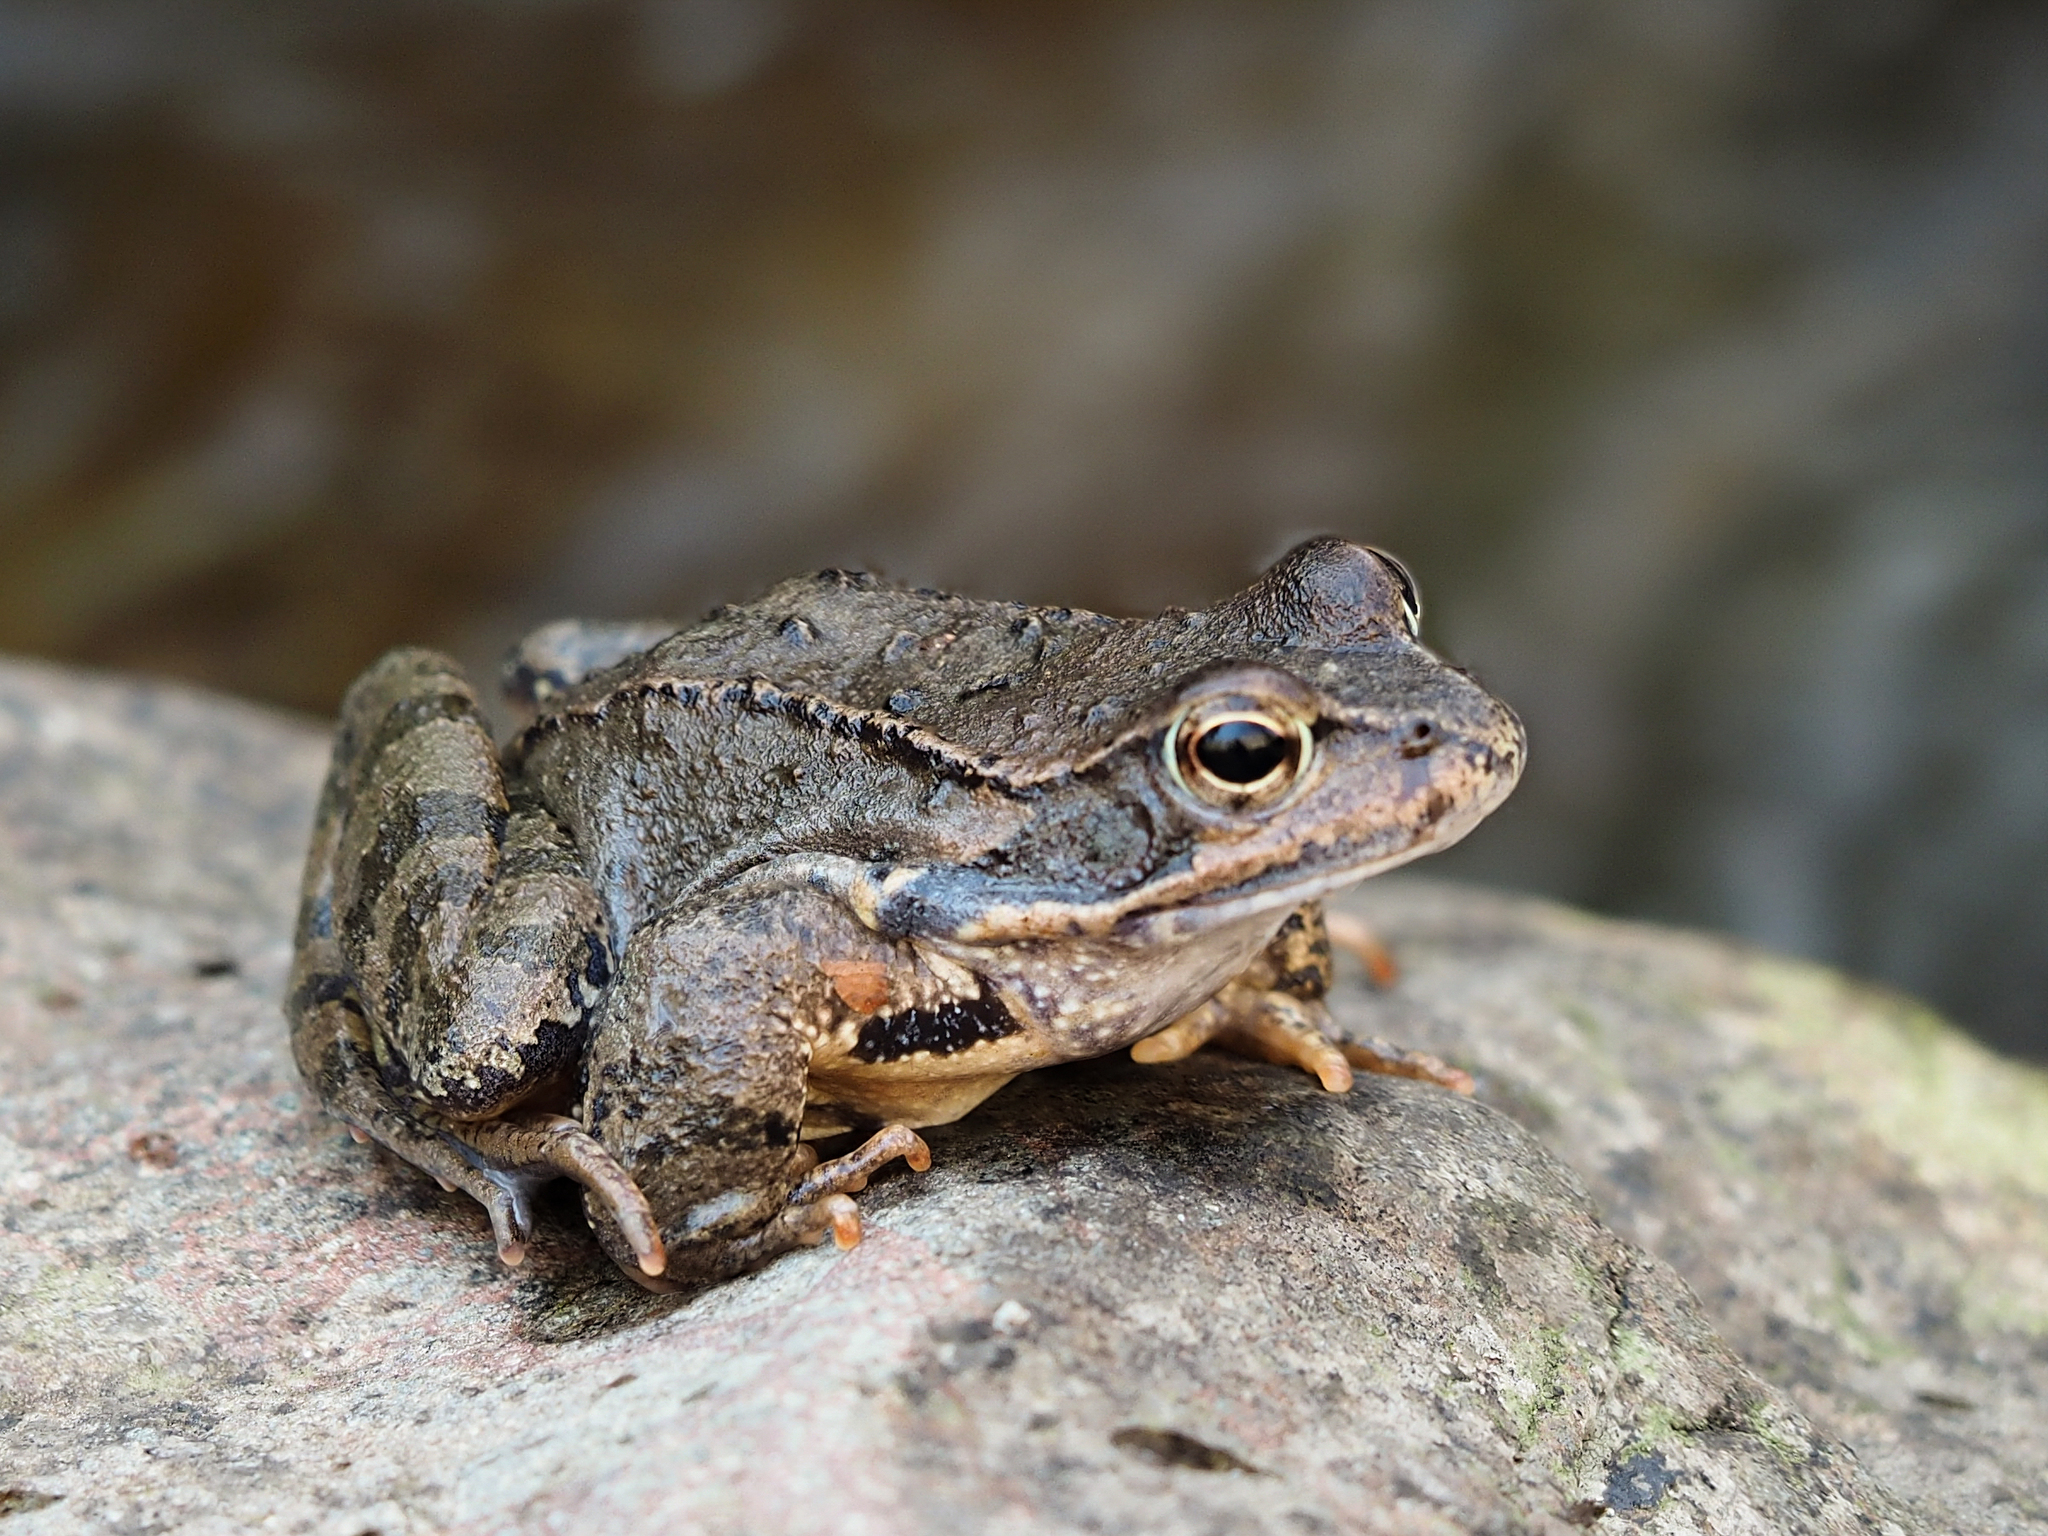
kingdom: Animalia
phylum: Chordata
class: Amphibia
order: Anura
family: Ranidae
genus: Rana
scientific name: Rana temporaria
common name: Common frog
